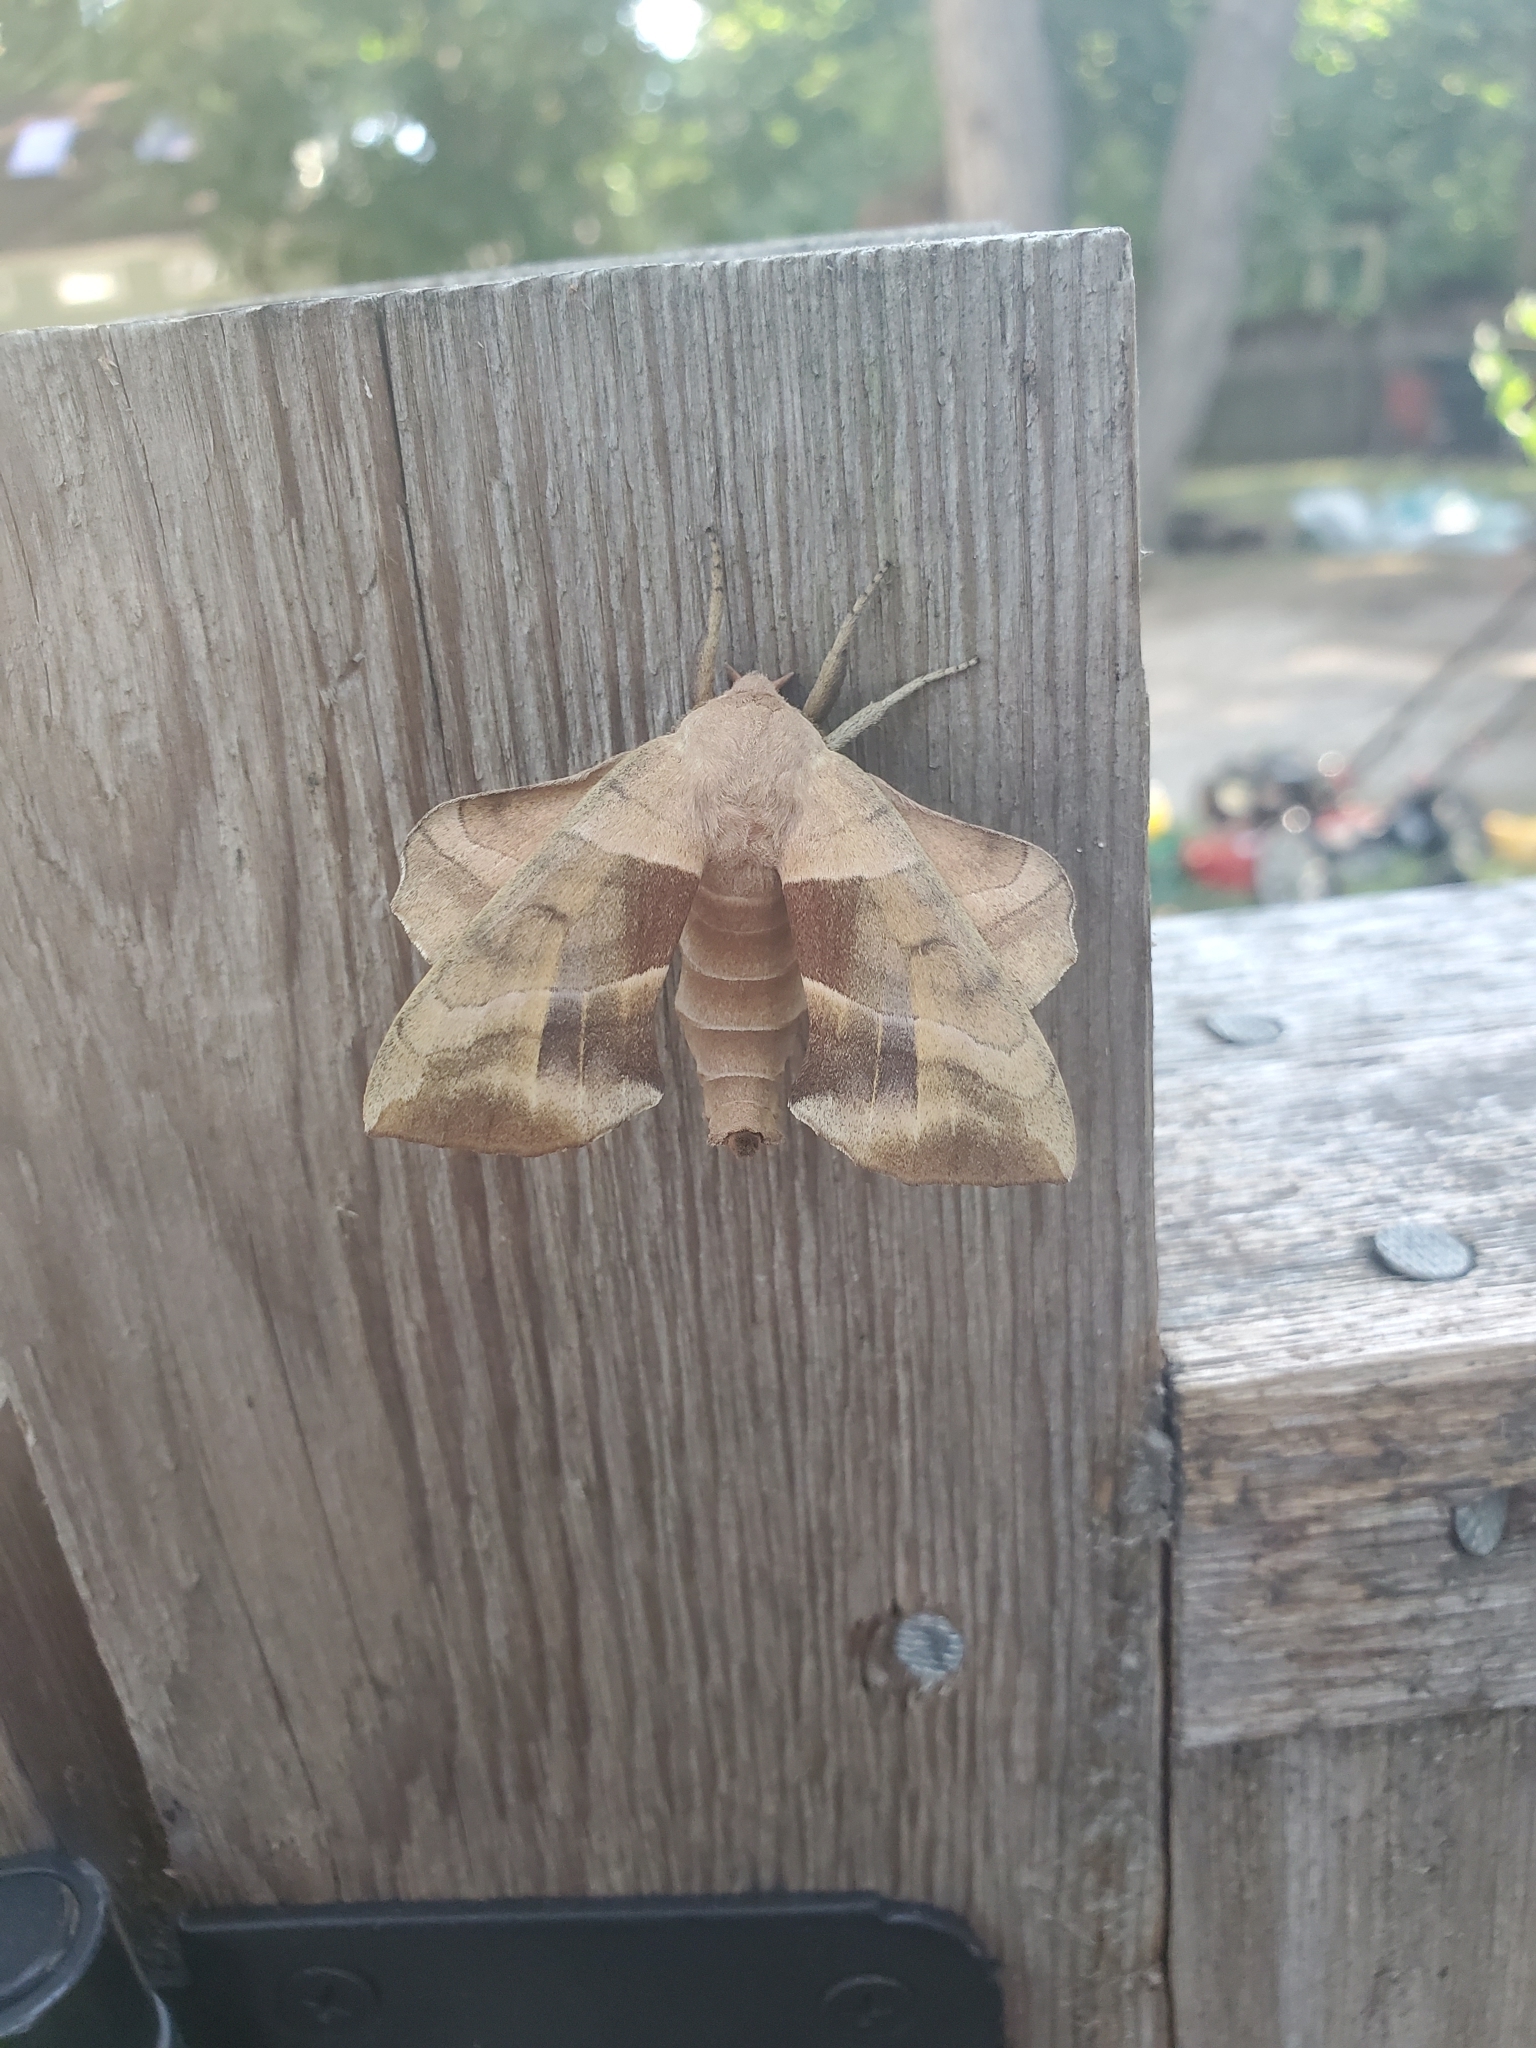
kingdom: Animalia
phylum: Arthropoda
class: Insecta
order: Lepidoptera
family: Sphingidae
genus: Amorpha
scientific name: Amorpha juglandis
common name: Walnut sphinx
